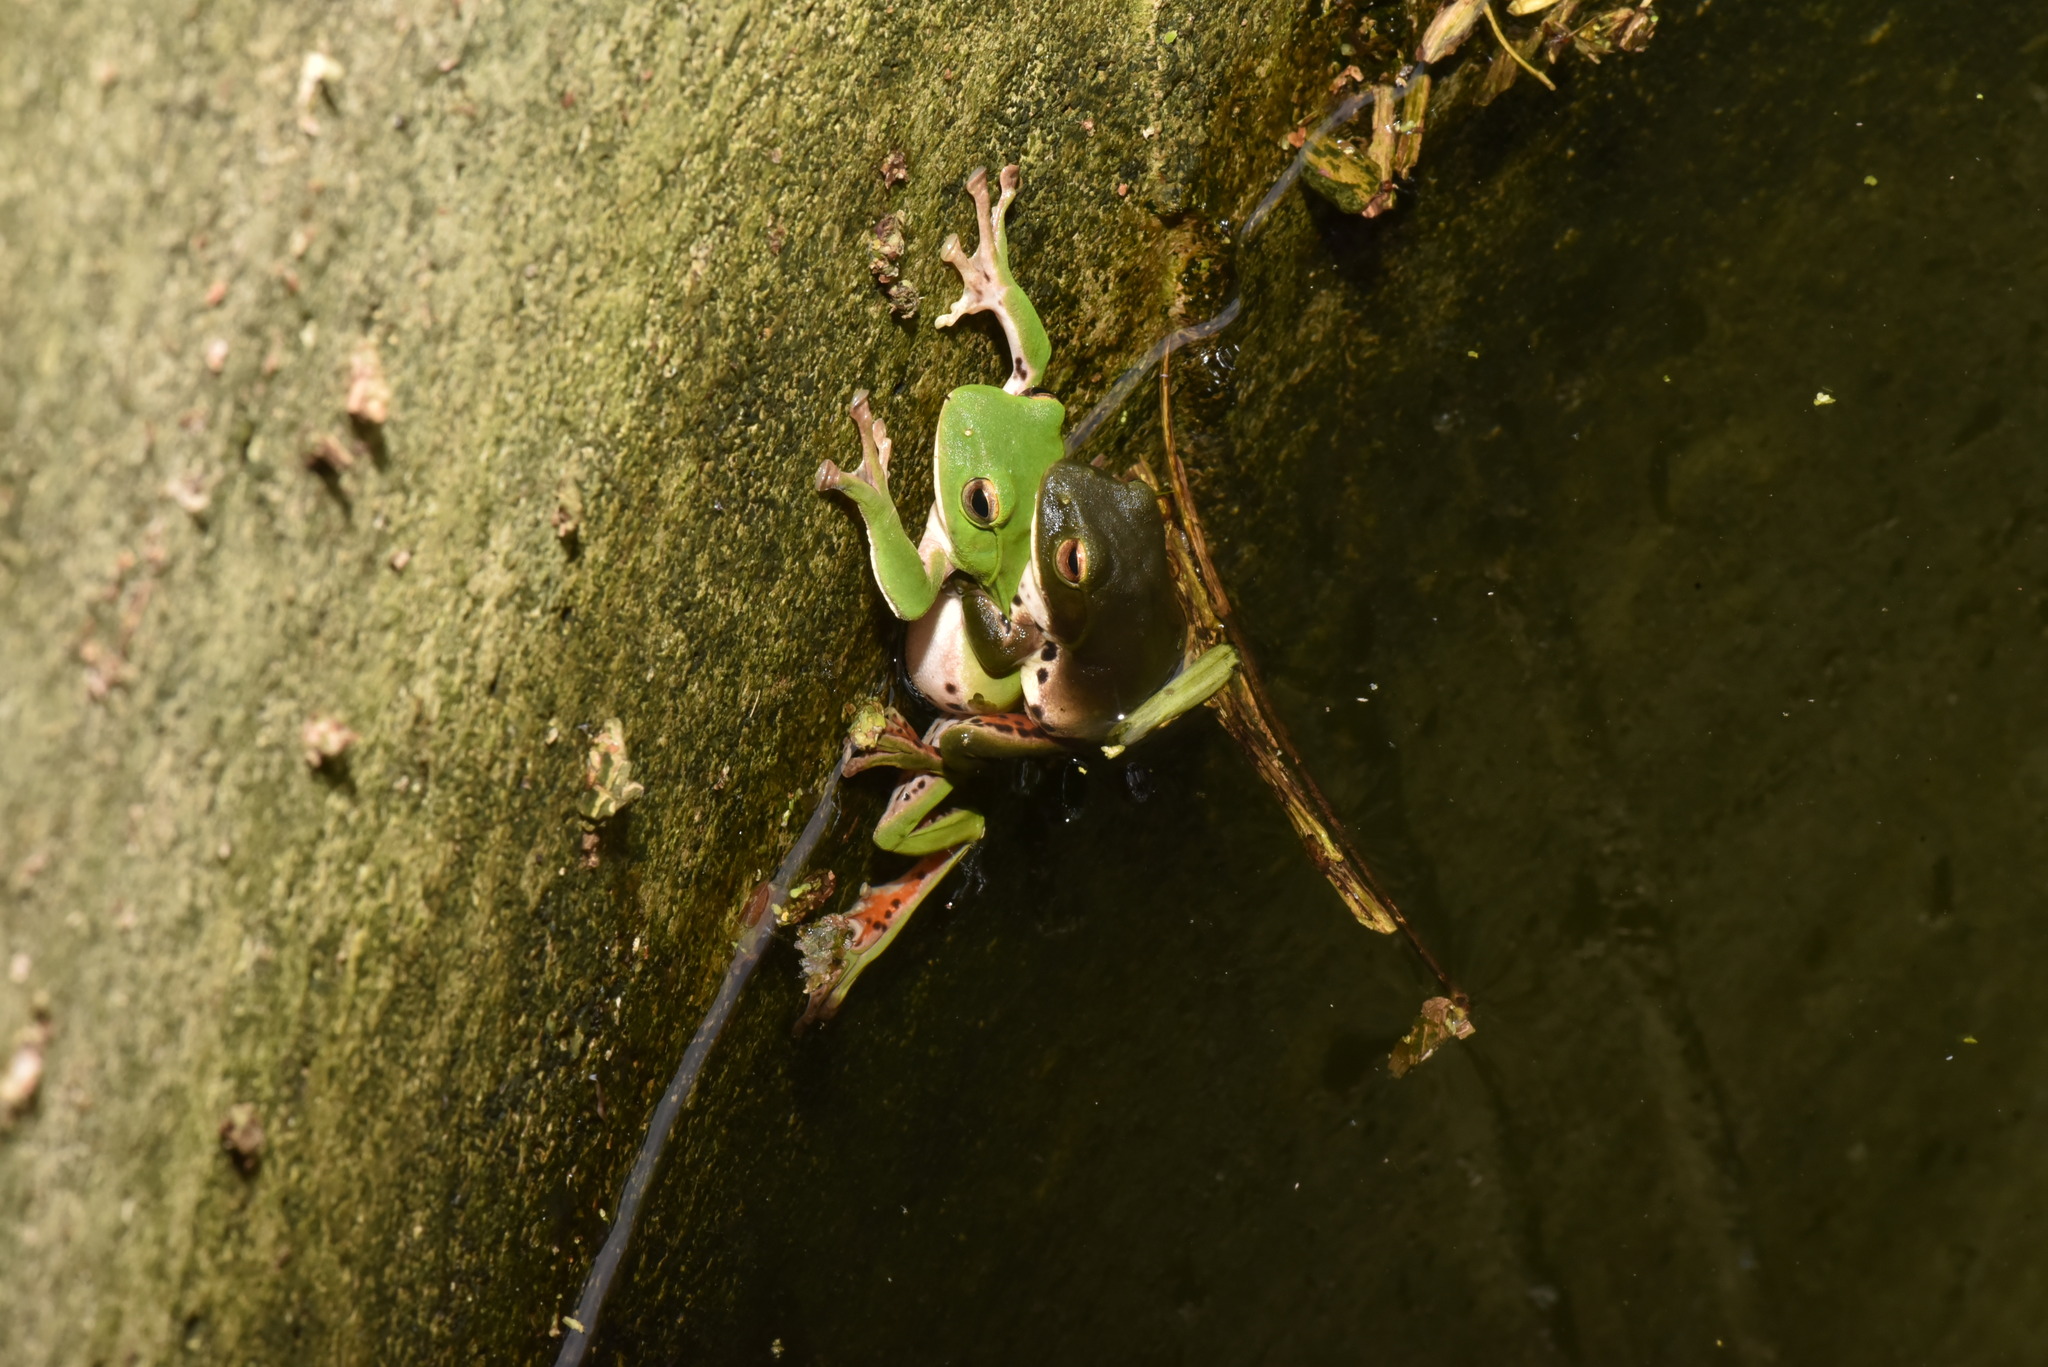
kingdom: Animalia
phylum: Chordata
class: Amphibia
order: Anura
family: Rhacophoridae
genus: Zhangixalus
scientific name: Zhangixalus moltrechti
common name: Moltrecht's treefrog
